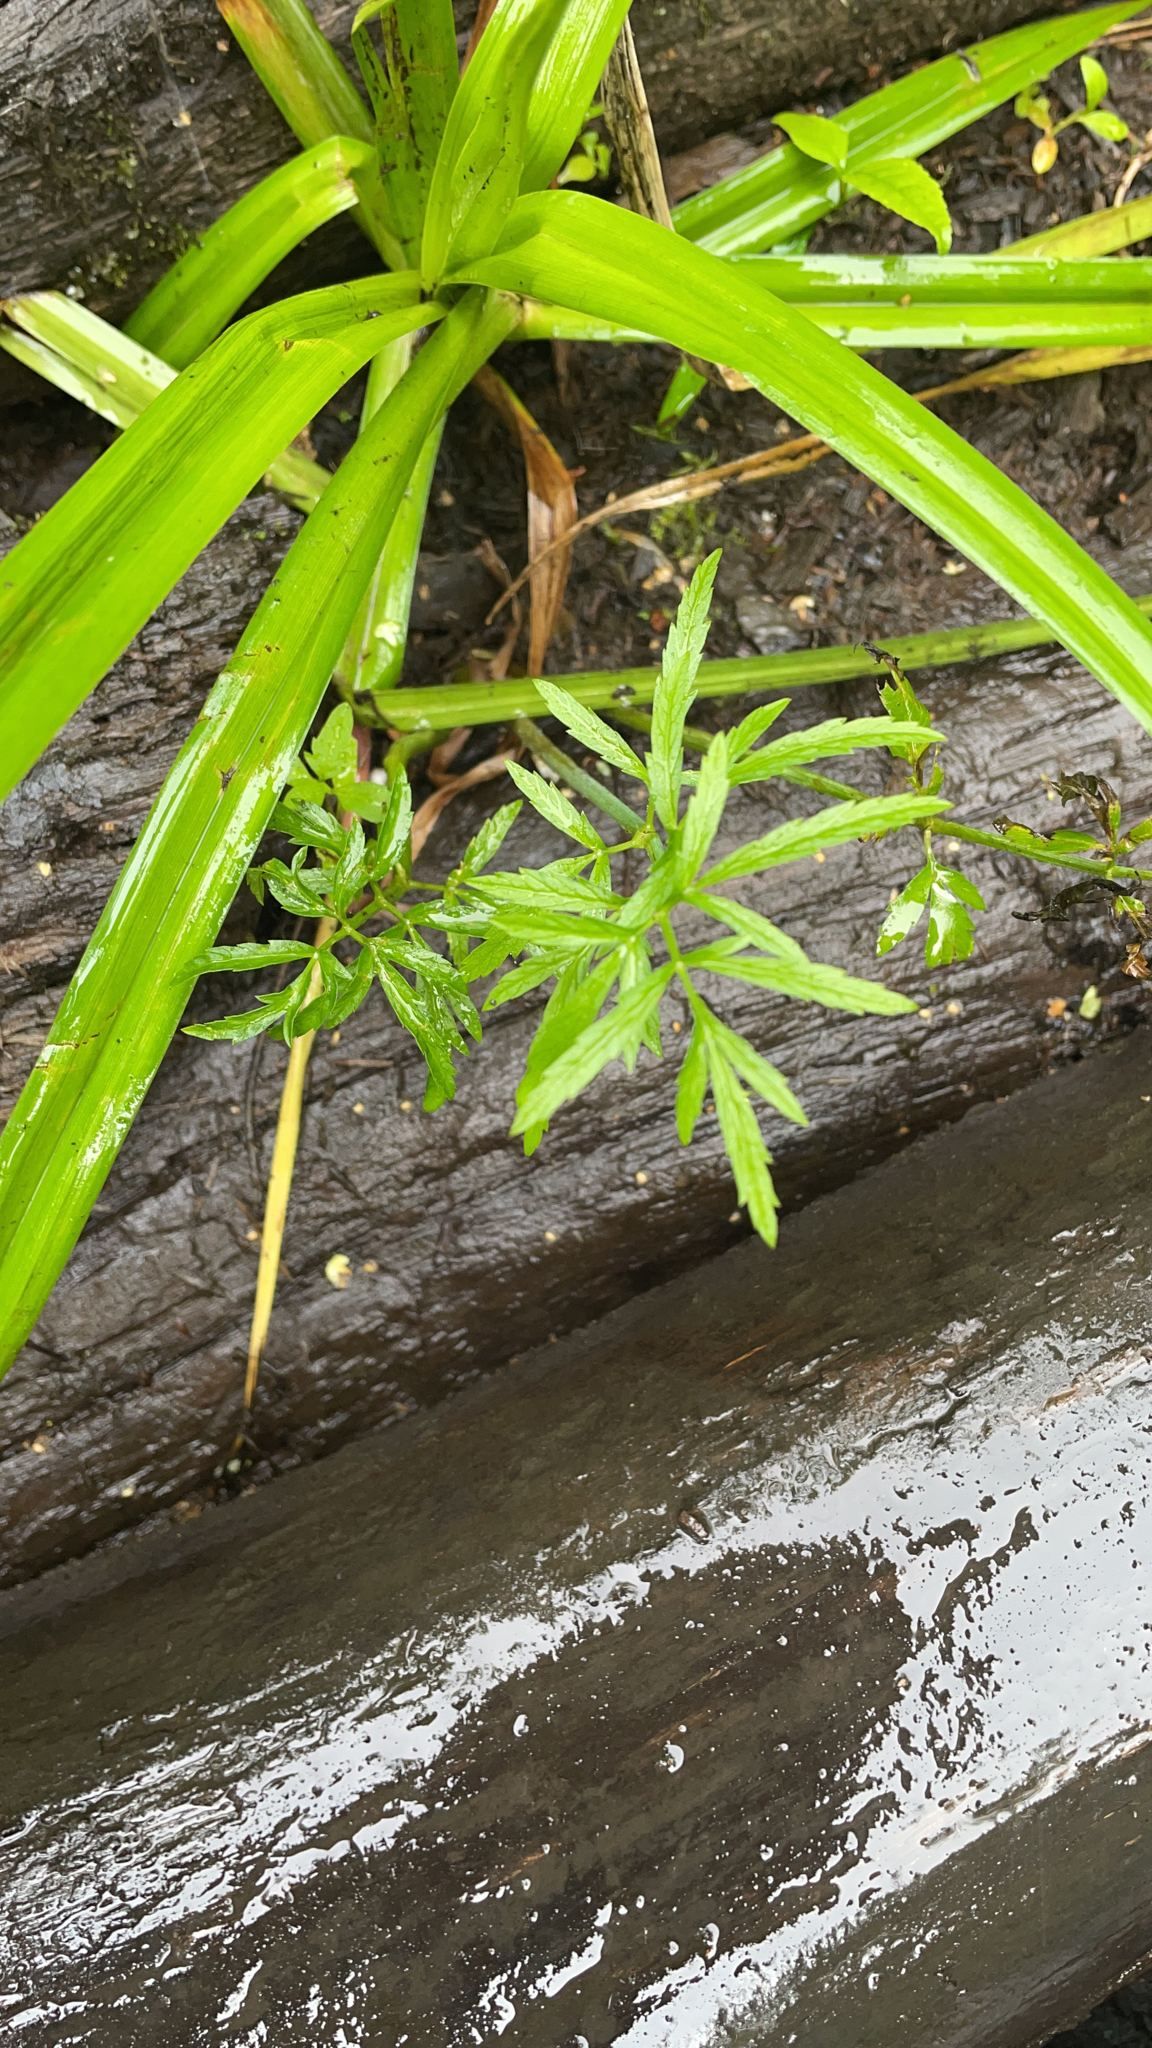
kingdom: Plantae
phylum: Tracheophyta
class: Magnoliopsida
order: Apiales
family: Apiaceae
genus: Cicuta
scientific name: Cicuta virosa
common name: Cowbane
